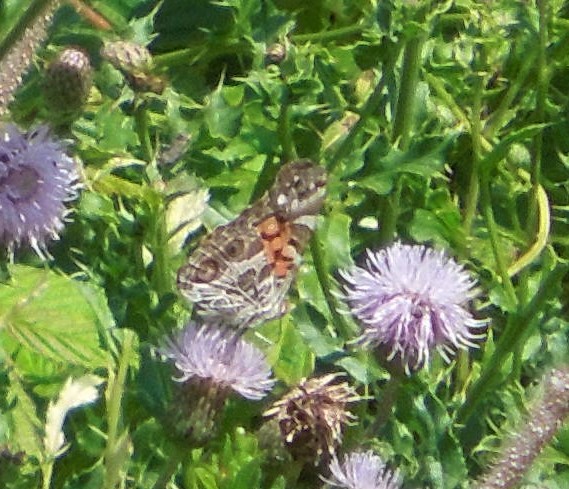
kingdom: Animalia
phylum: Arthropoda
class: Insecta
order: Lepidoptera
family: Nymphalidae
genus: Vanessa
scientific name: Vanessa virginiensis
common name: American lady
